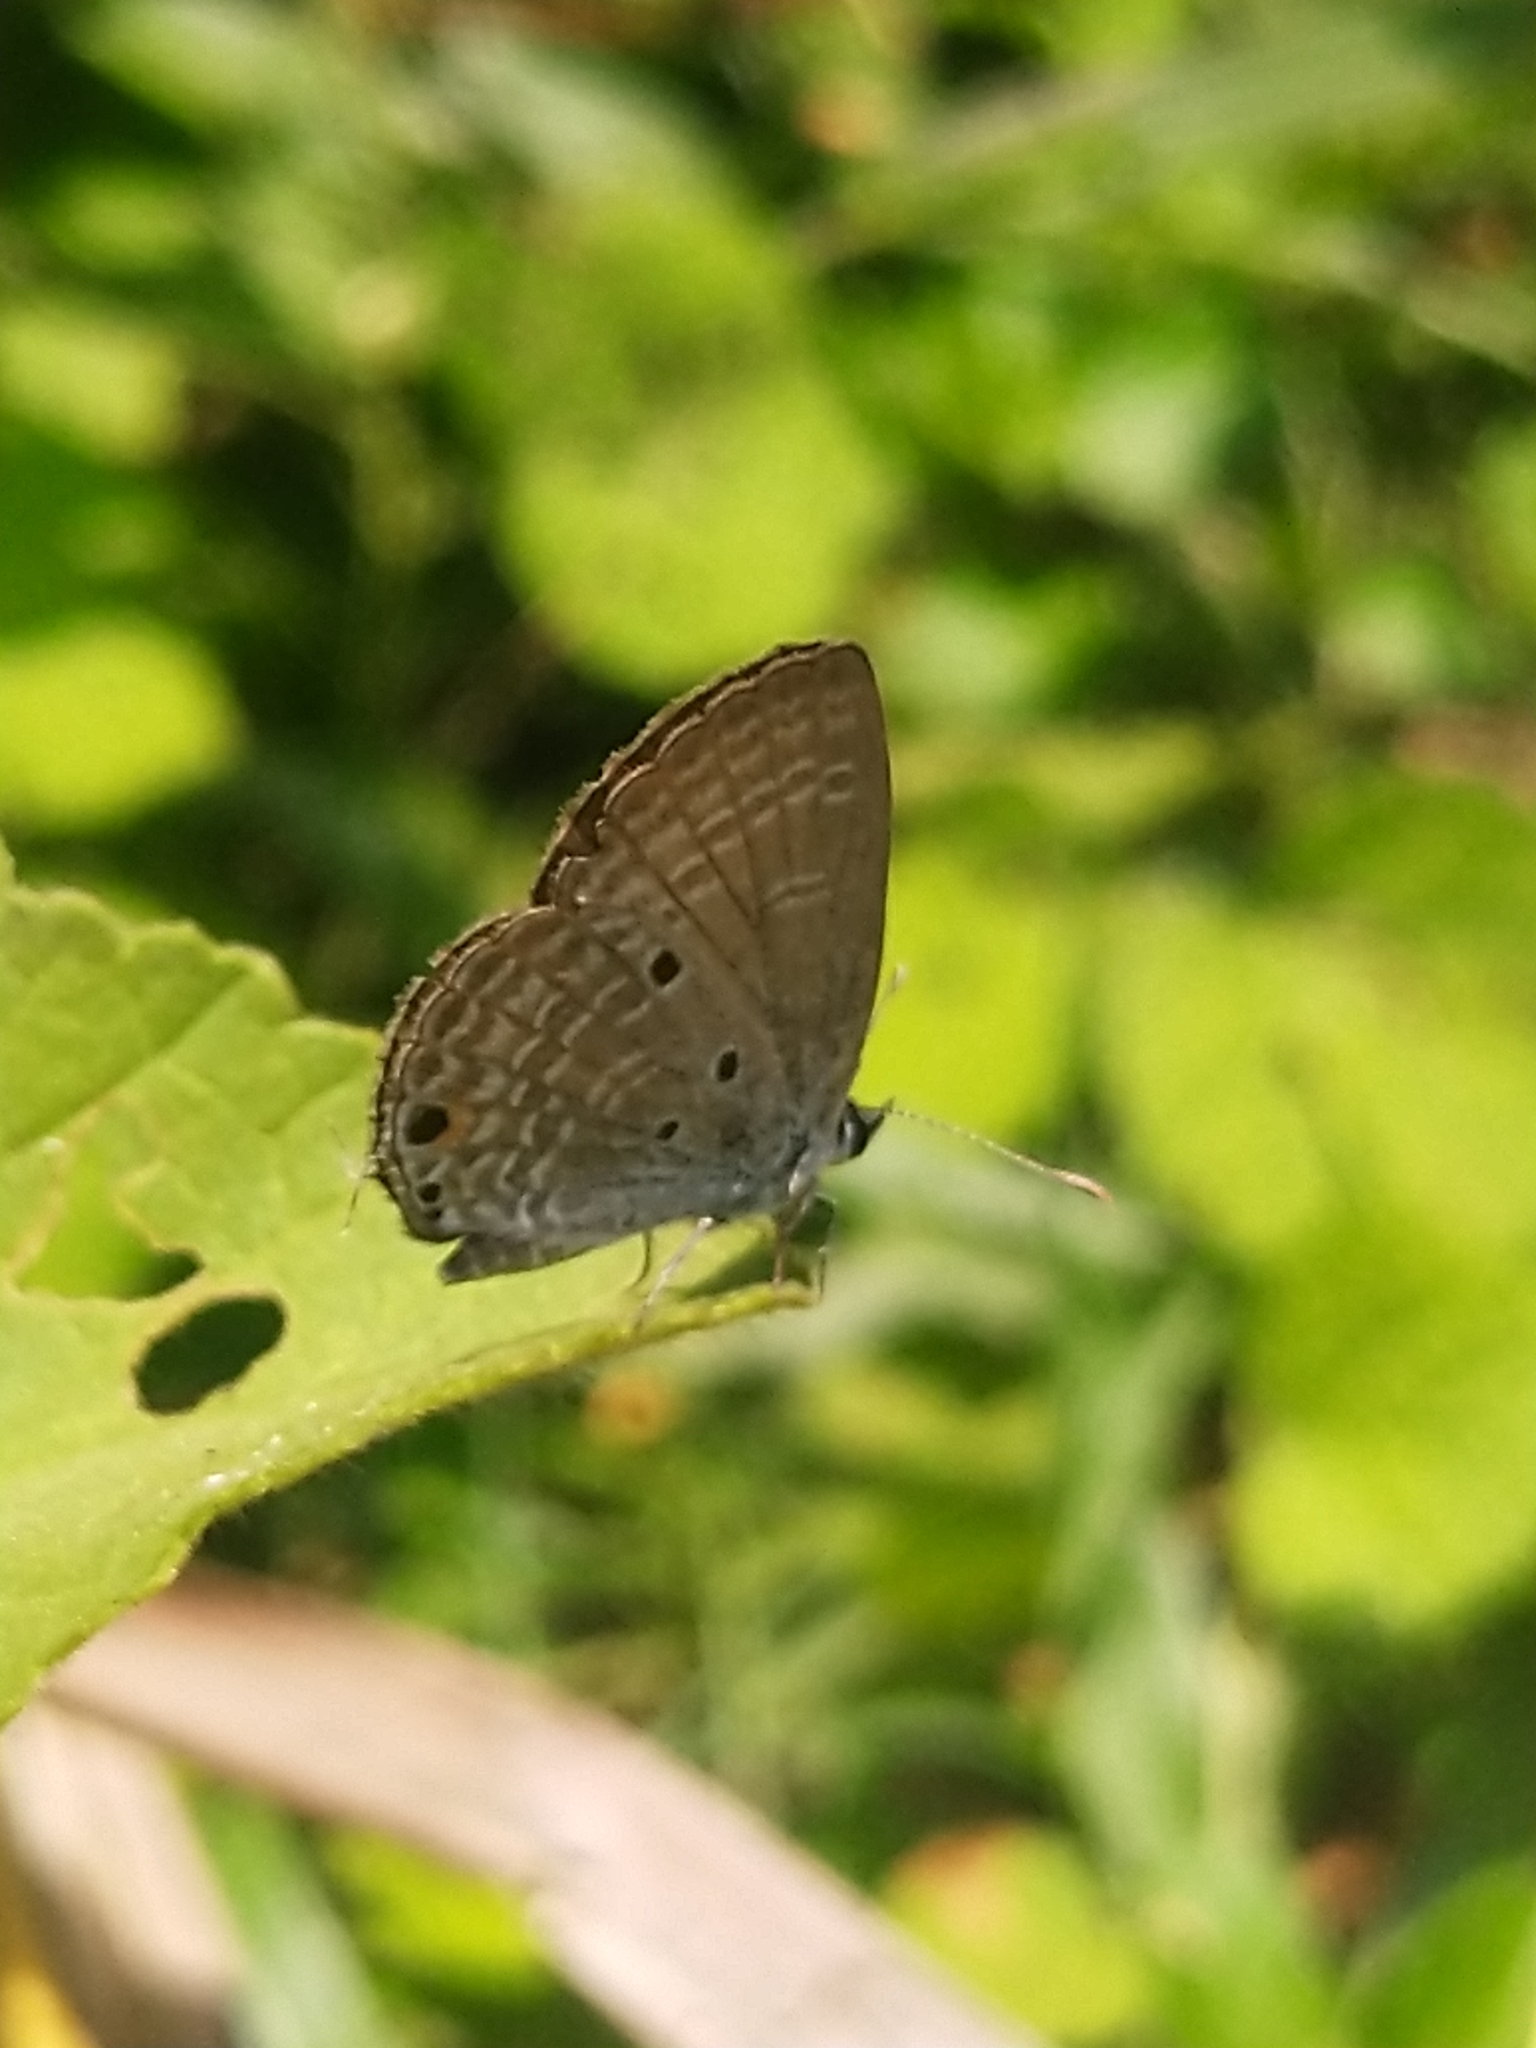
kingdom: Animalia
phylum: Arthropoda
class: Insecta
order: Lepidoptera
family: Lycaenidae
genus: Luthrodes
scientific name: Luthrodes pandava
